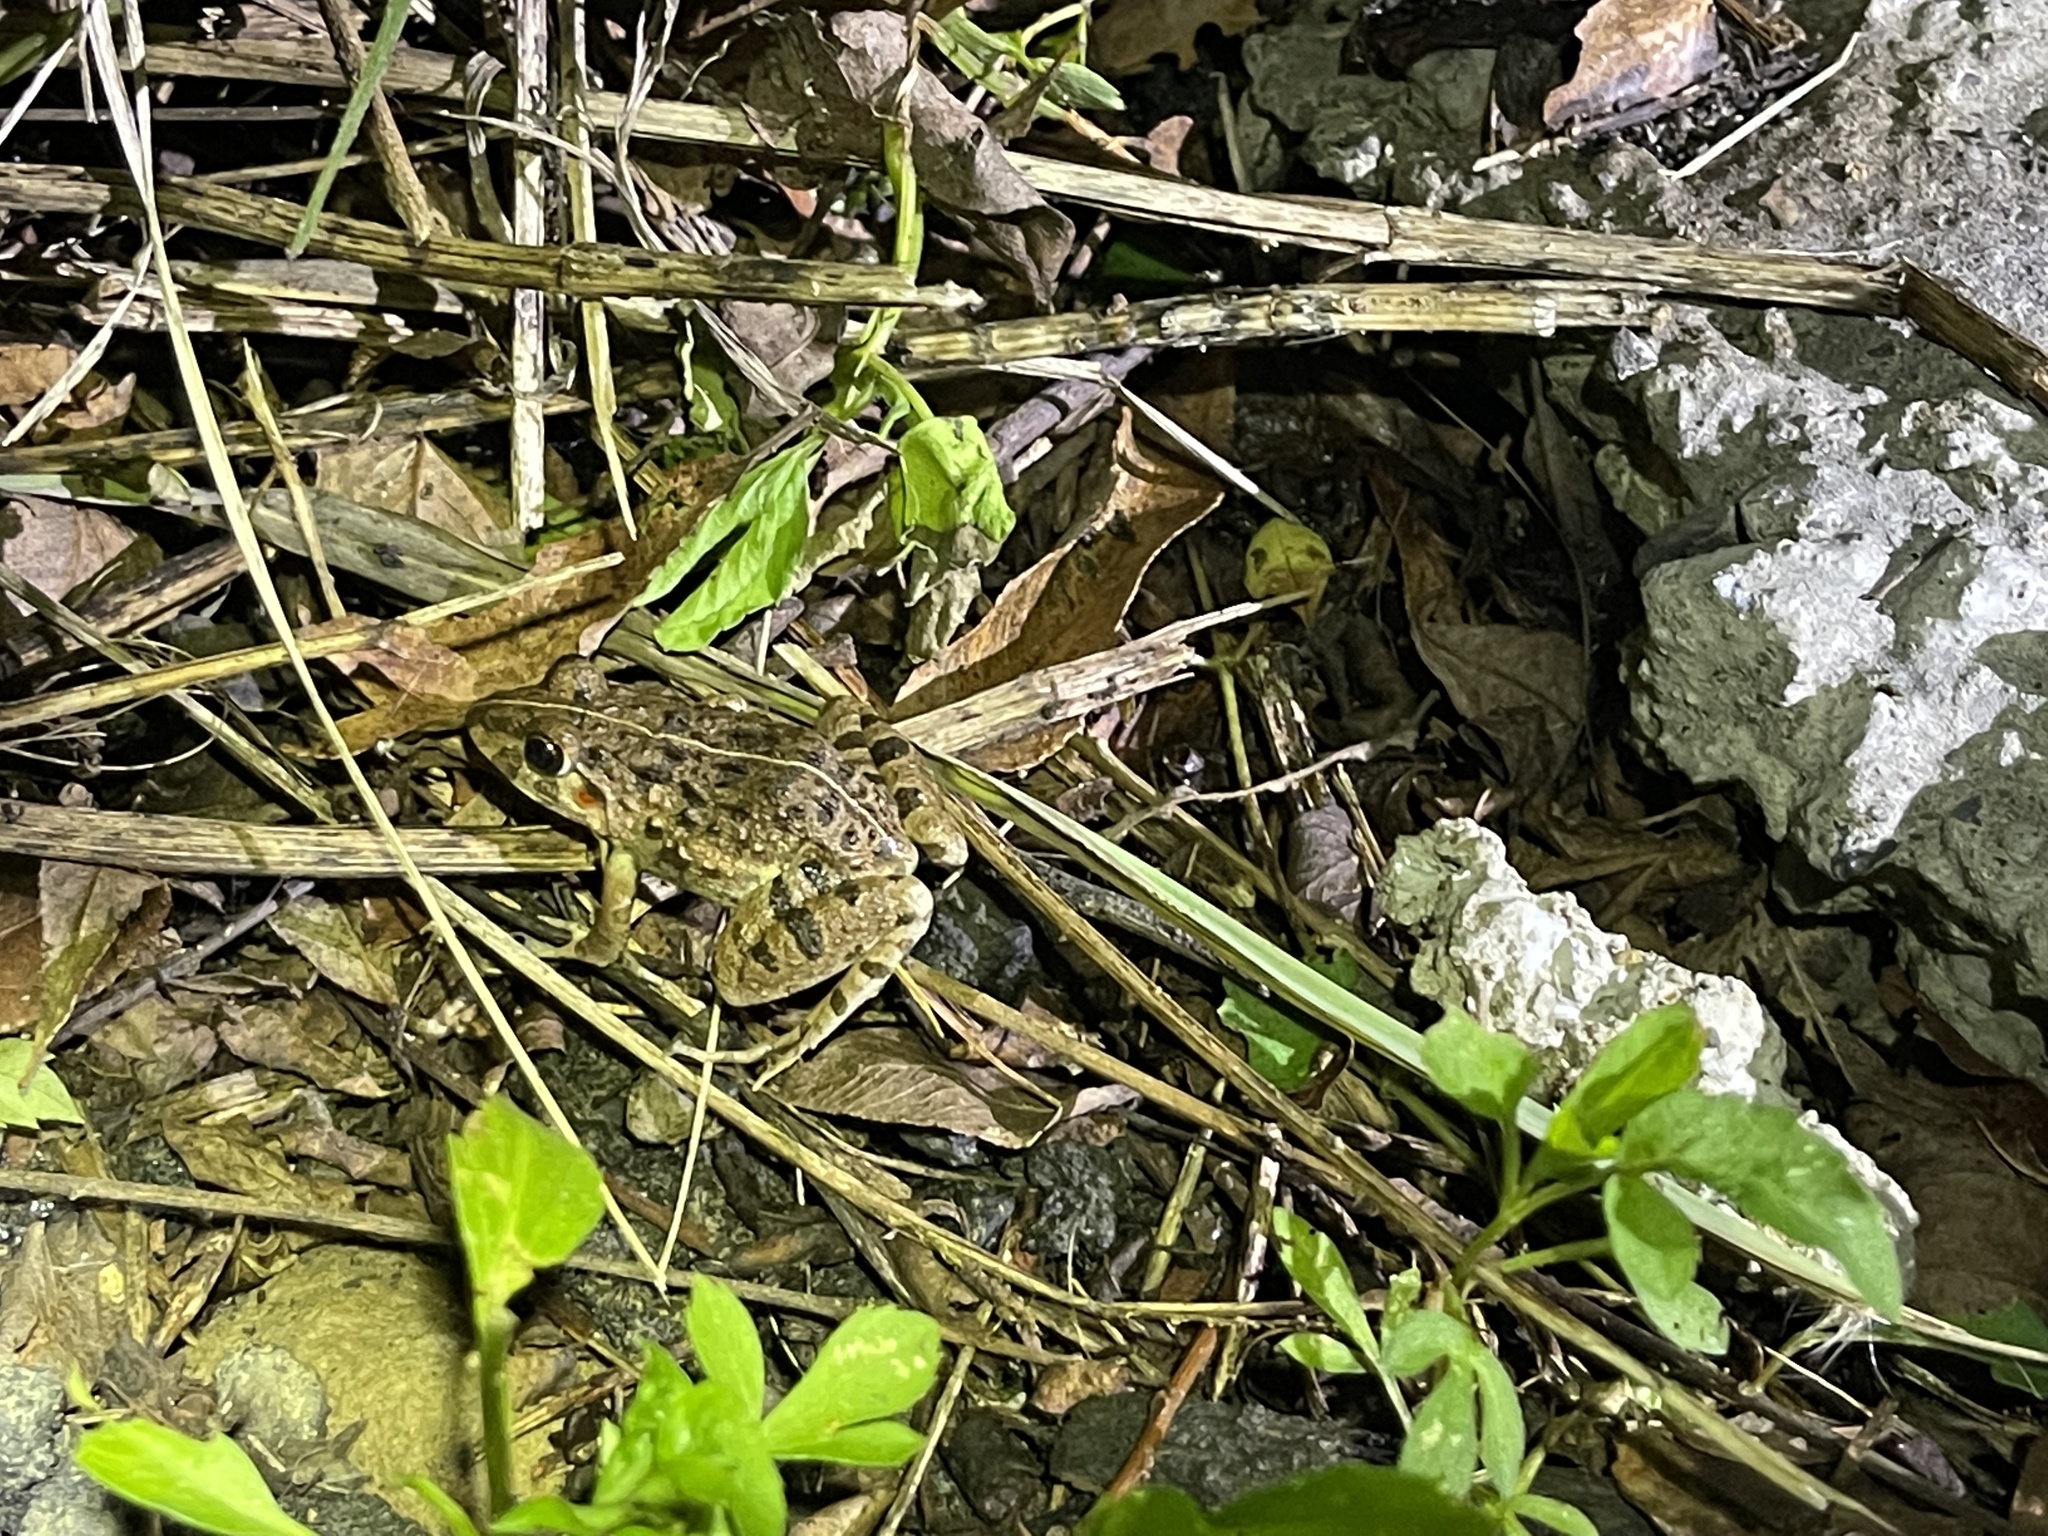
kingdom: Animalia
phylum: Chordata
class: Amphibia
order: Anura
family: Dicroglossidae
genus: Fejervarya
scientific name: Fejervarya limnocharis
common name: Asian grass frog/common pond frog/field frog/grass frog/indian rice frog
